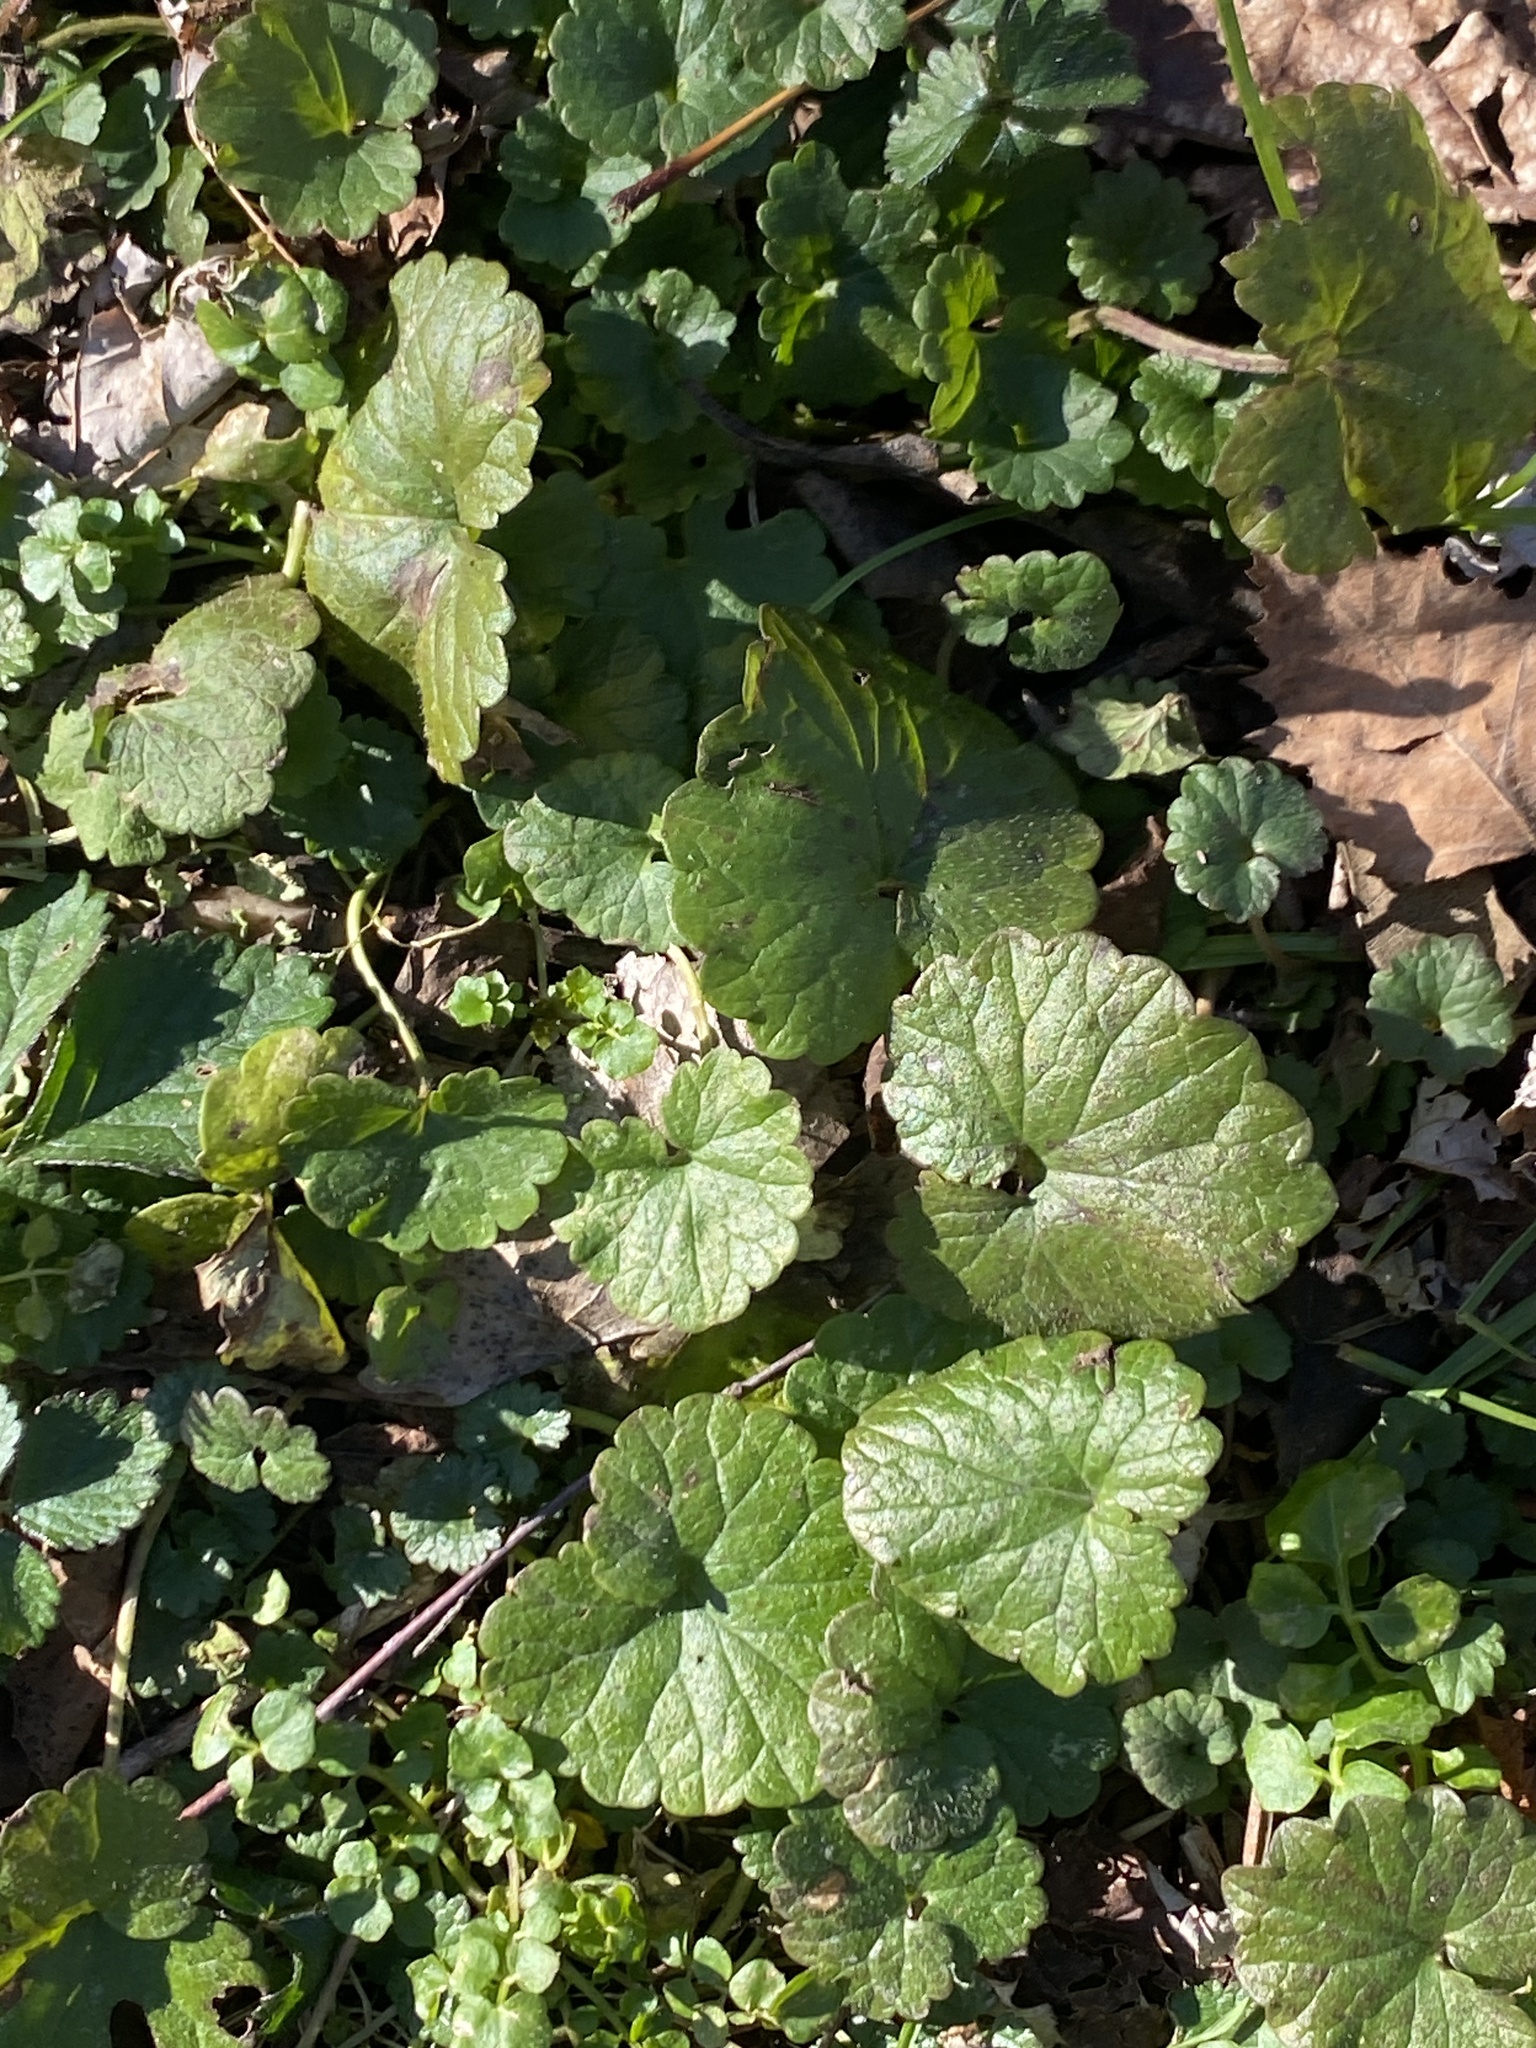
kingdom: Plantae
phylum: Tracheophyta
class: Magnoliopsida
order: Lamiales
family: Lamiaceae
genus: Glechoma
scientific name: Glechoma hederacea
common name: Ground ivy
